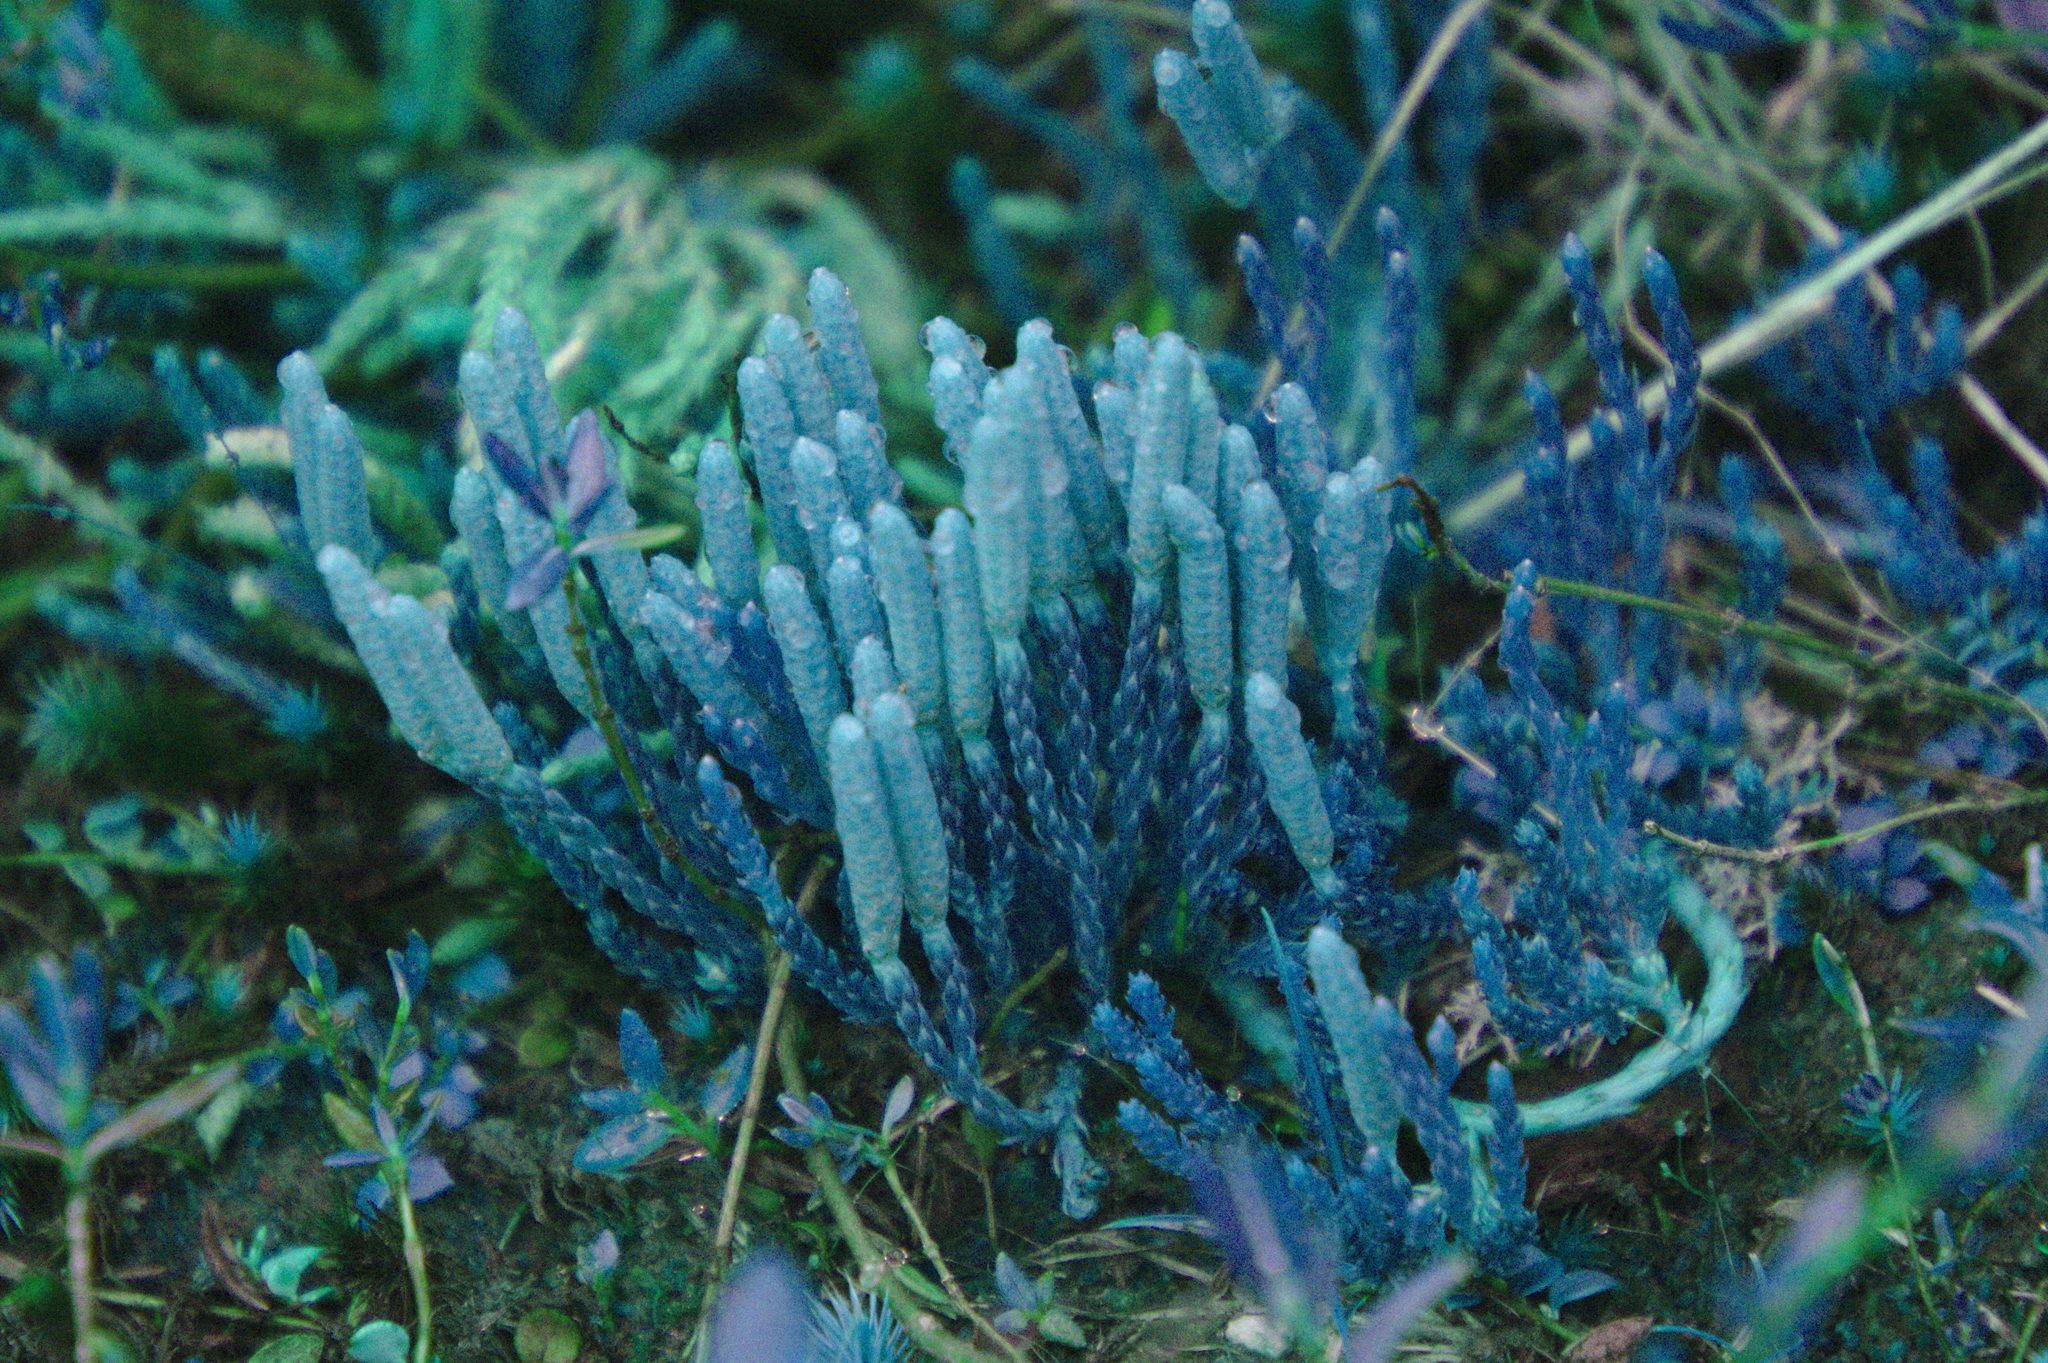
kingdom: Plantae
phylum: Tracheophyta
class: Lycopodiopsida
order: Lycopodiales
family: Lycopodiaceae
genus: Diphasiastrum
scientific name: Diphasiastrum sitchense
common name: Alaska clubmoss
